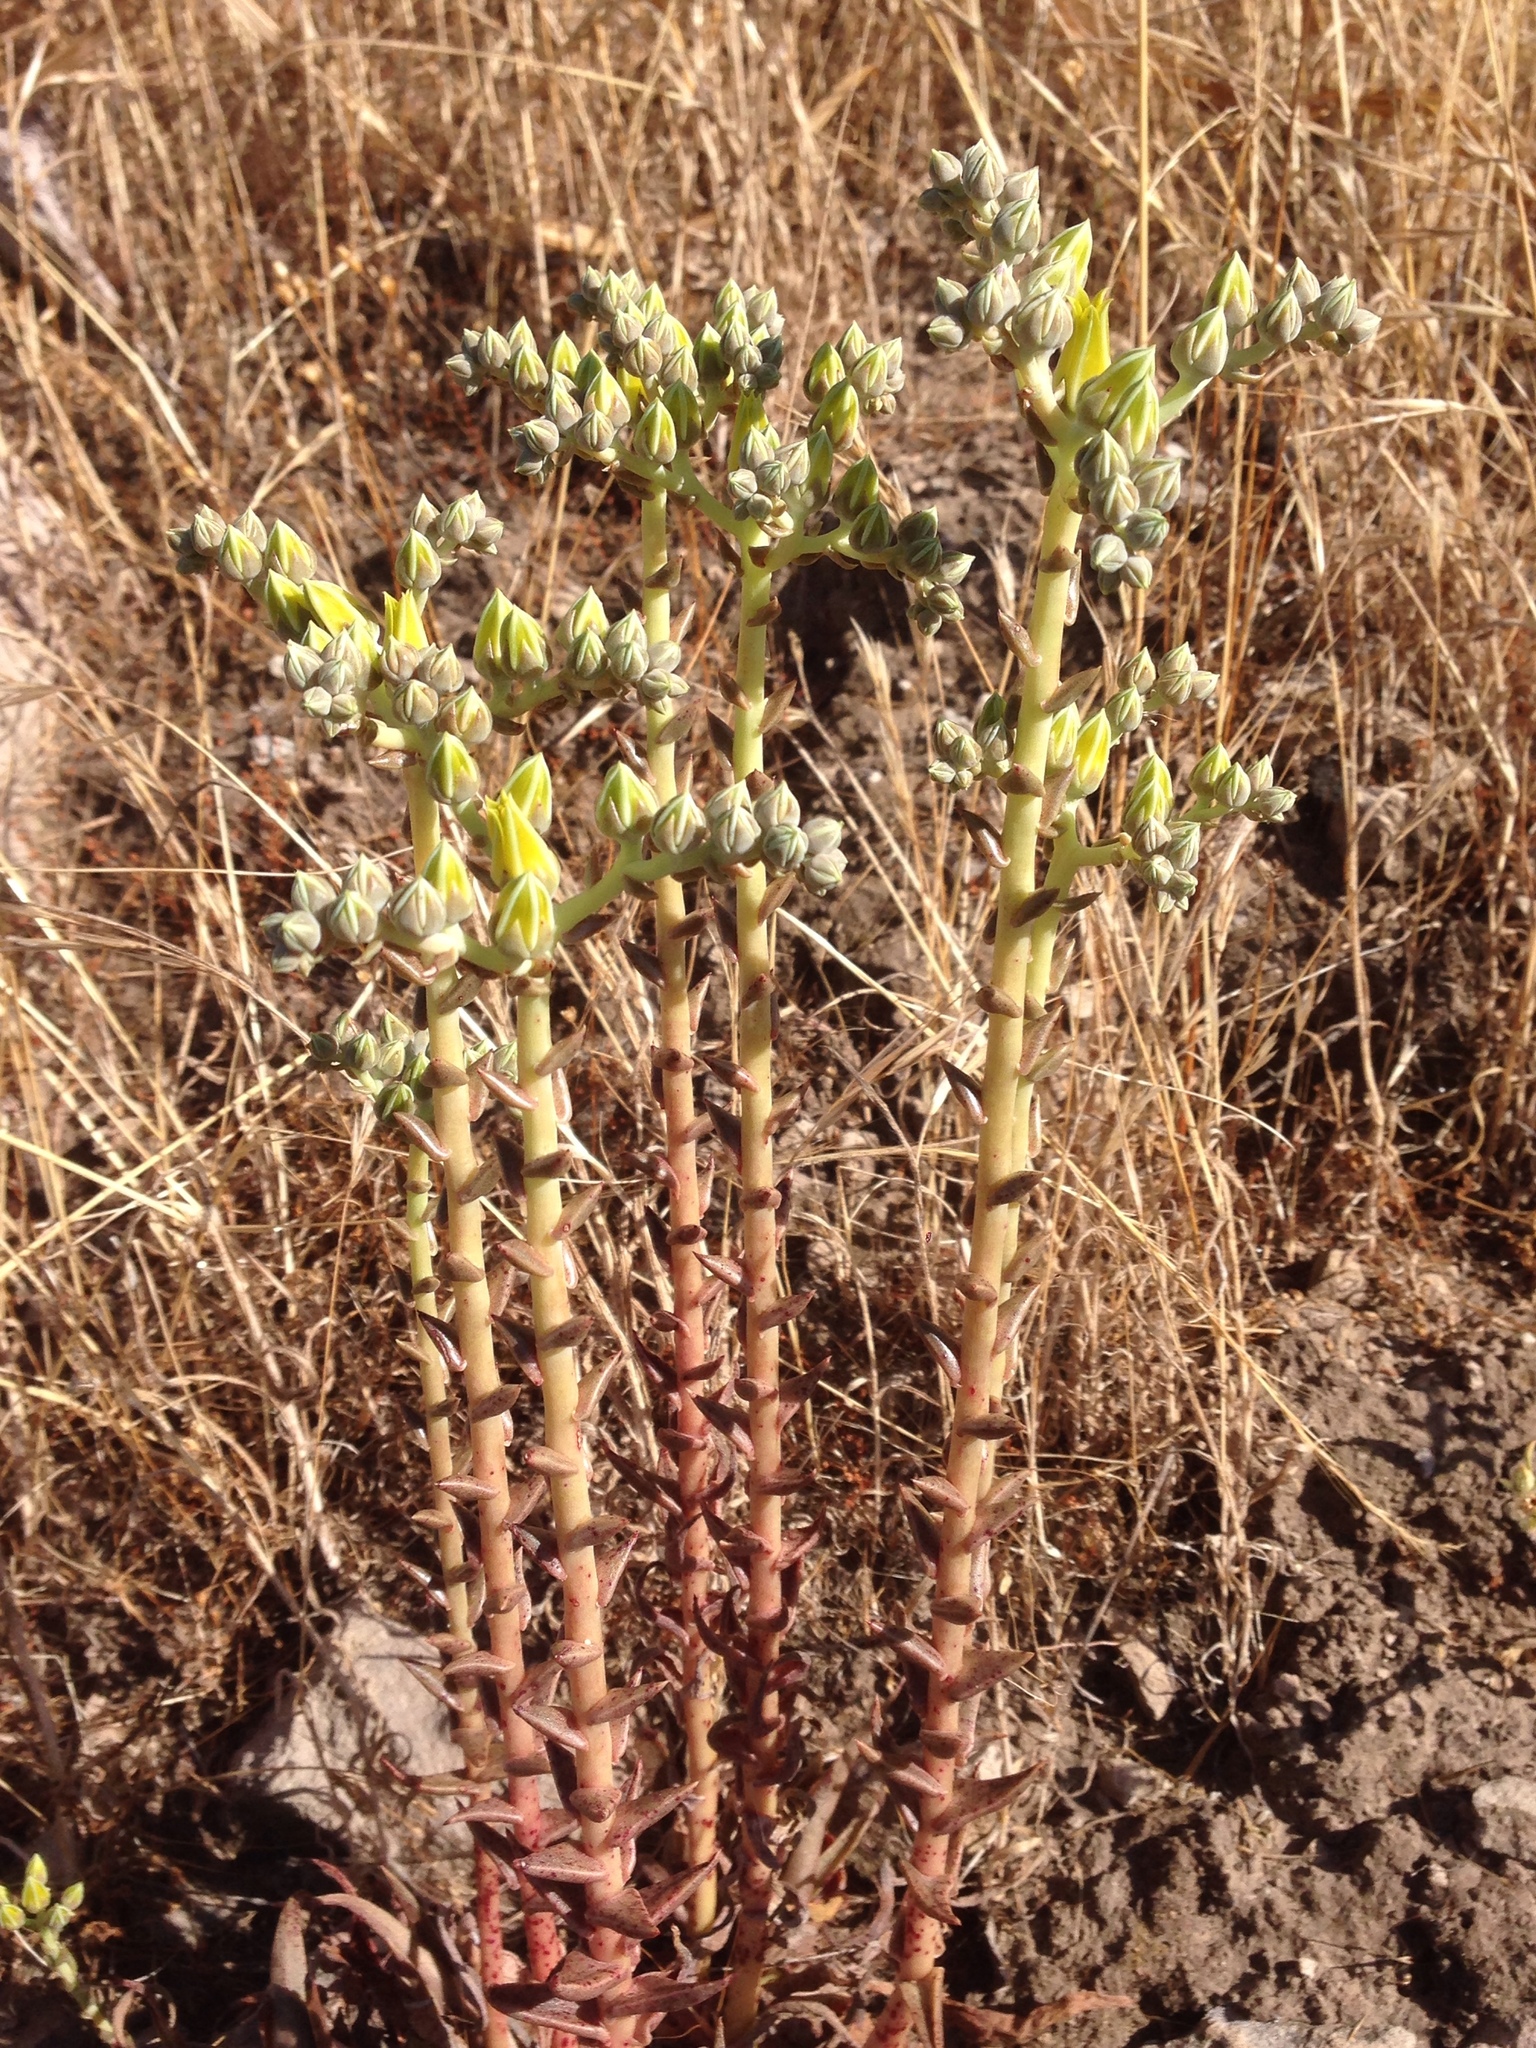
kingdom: Plantae
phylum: Tracheophyta
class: Magnoliopsida
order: Saxifragales
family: Crassulaceae
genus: Dudleya
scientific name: Dudleya lanceolata
